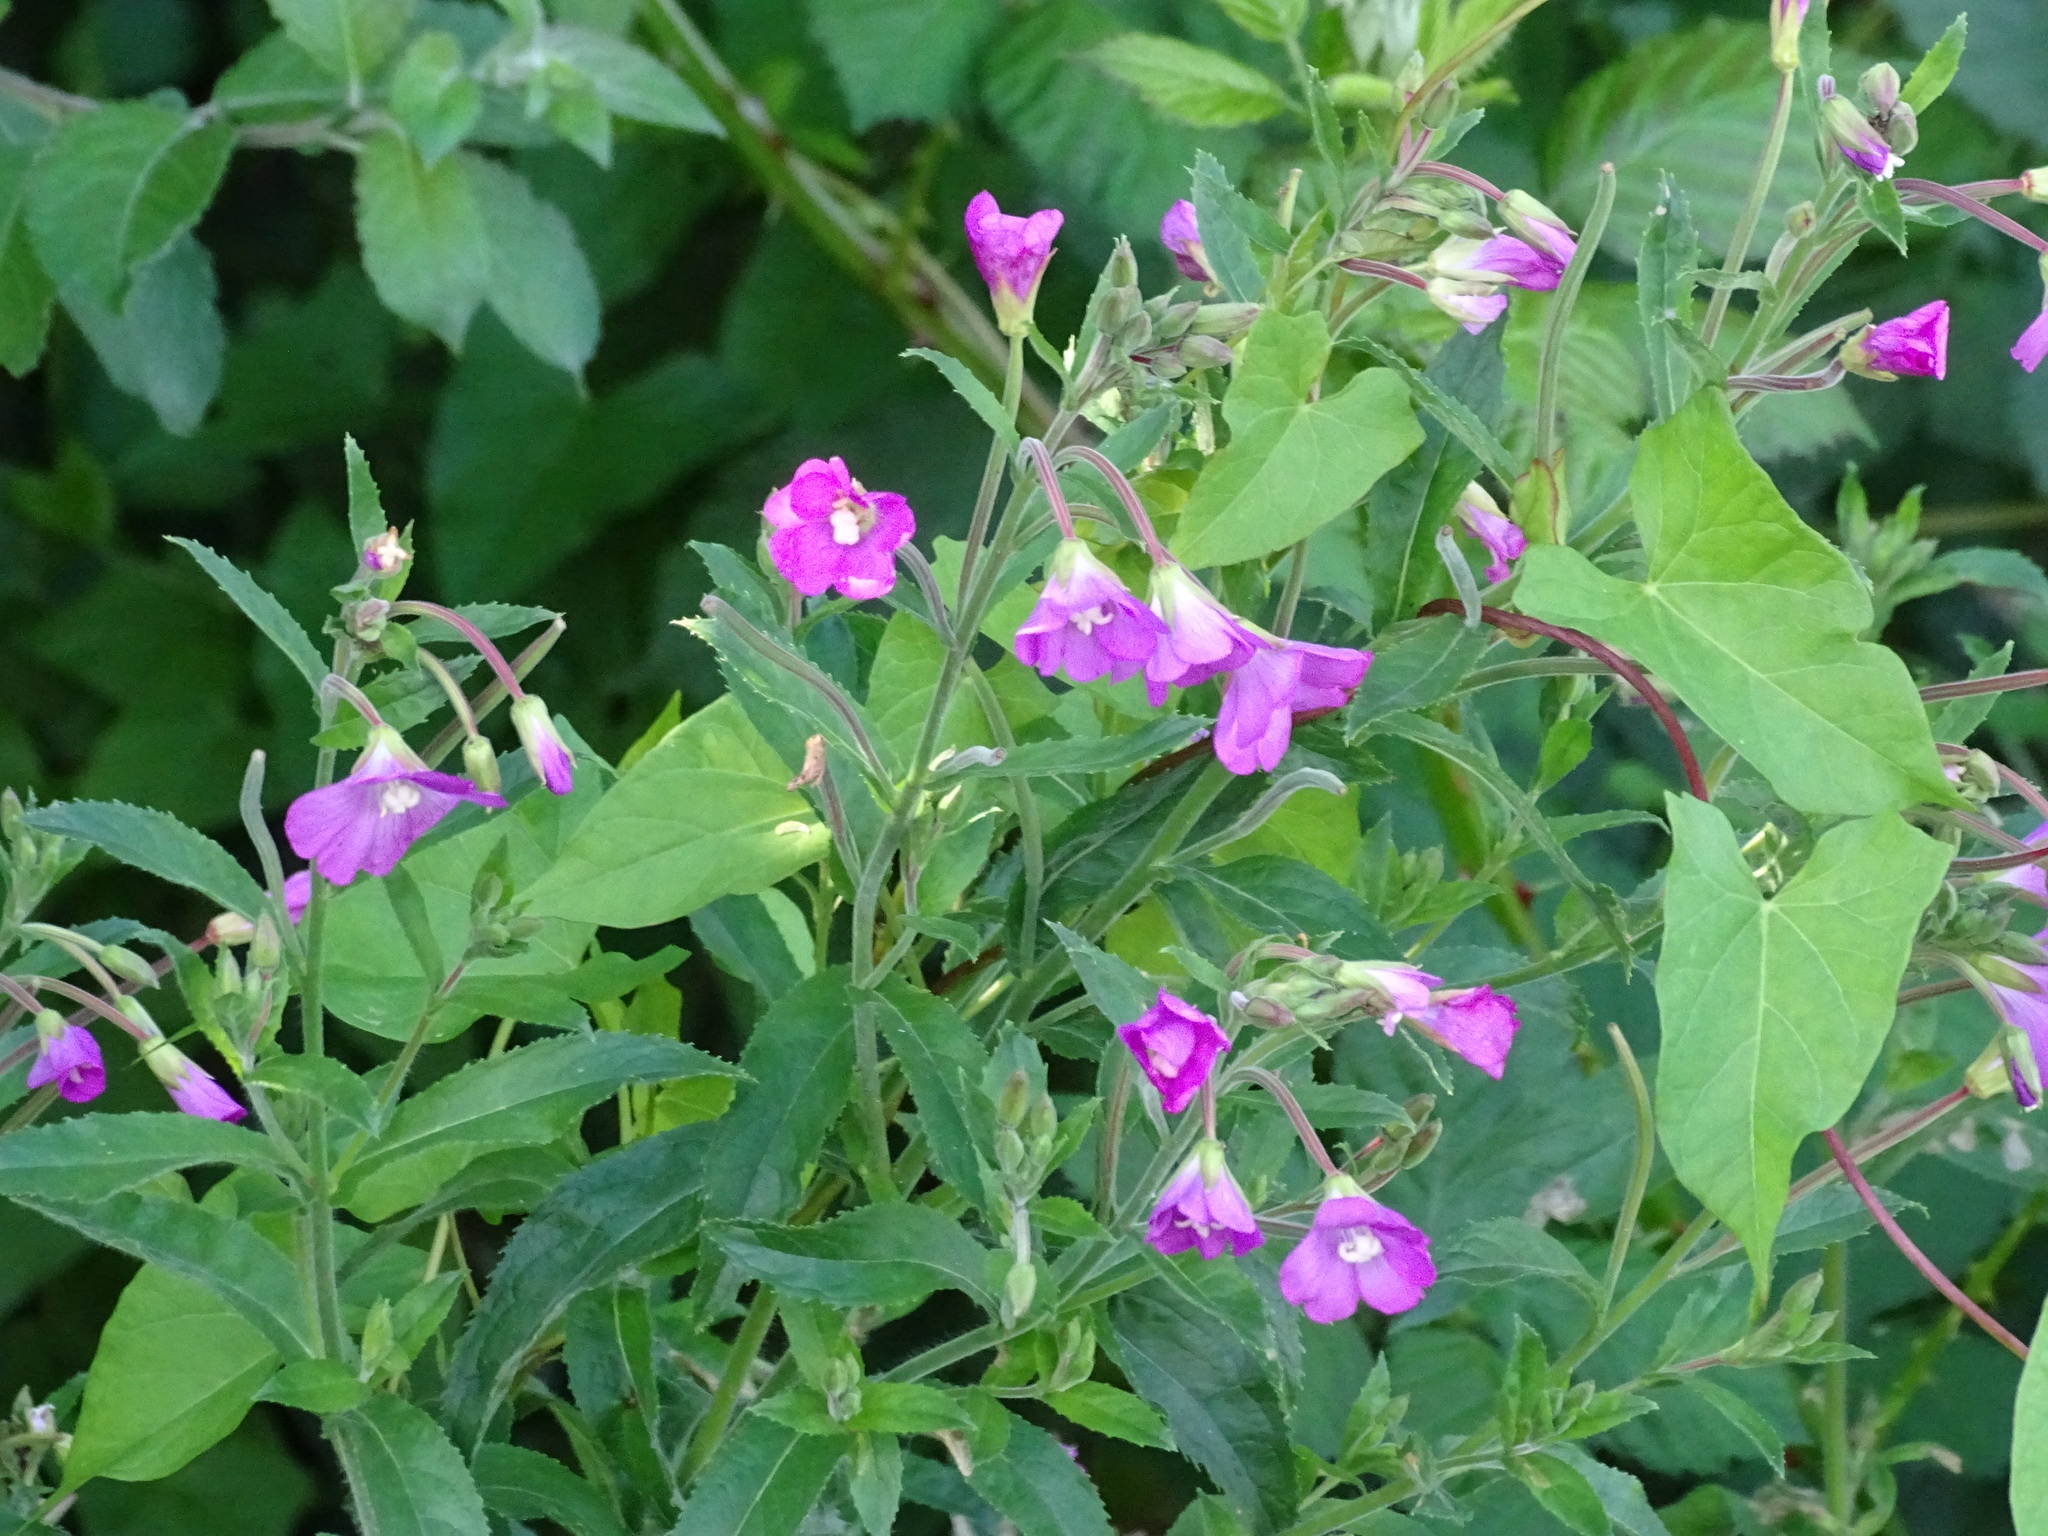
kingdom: Plantae
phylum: Tracheophyta
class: Magnoliopsida
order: Myrtales
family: Onagraceae
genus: Epilobium
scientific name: Epilobium hirsutum
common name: Great willowherb
